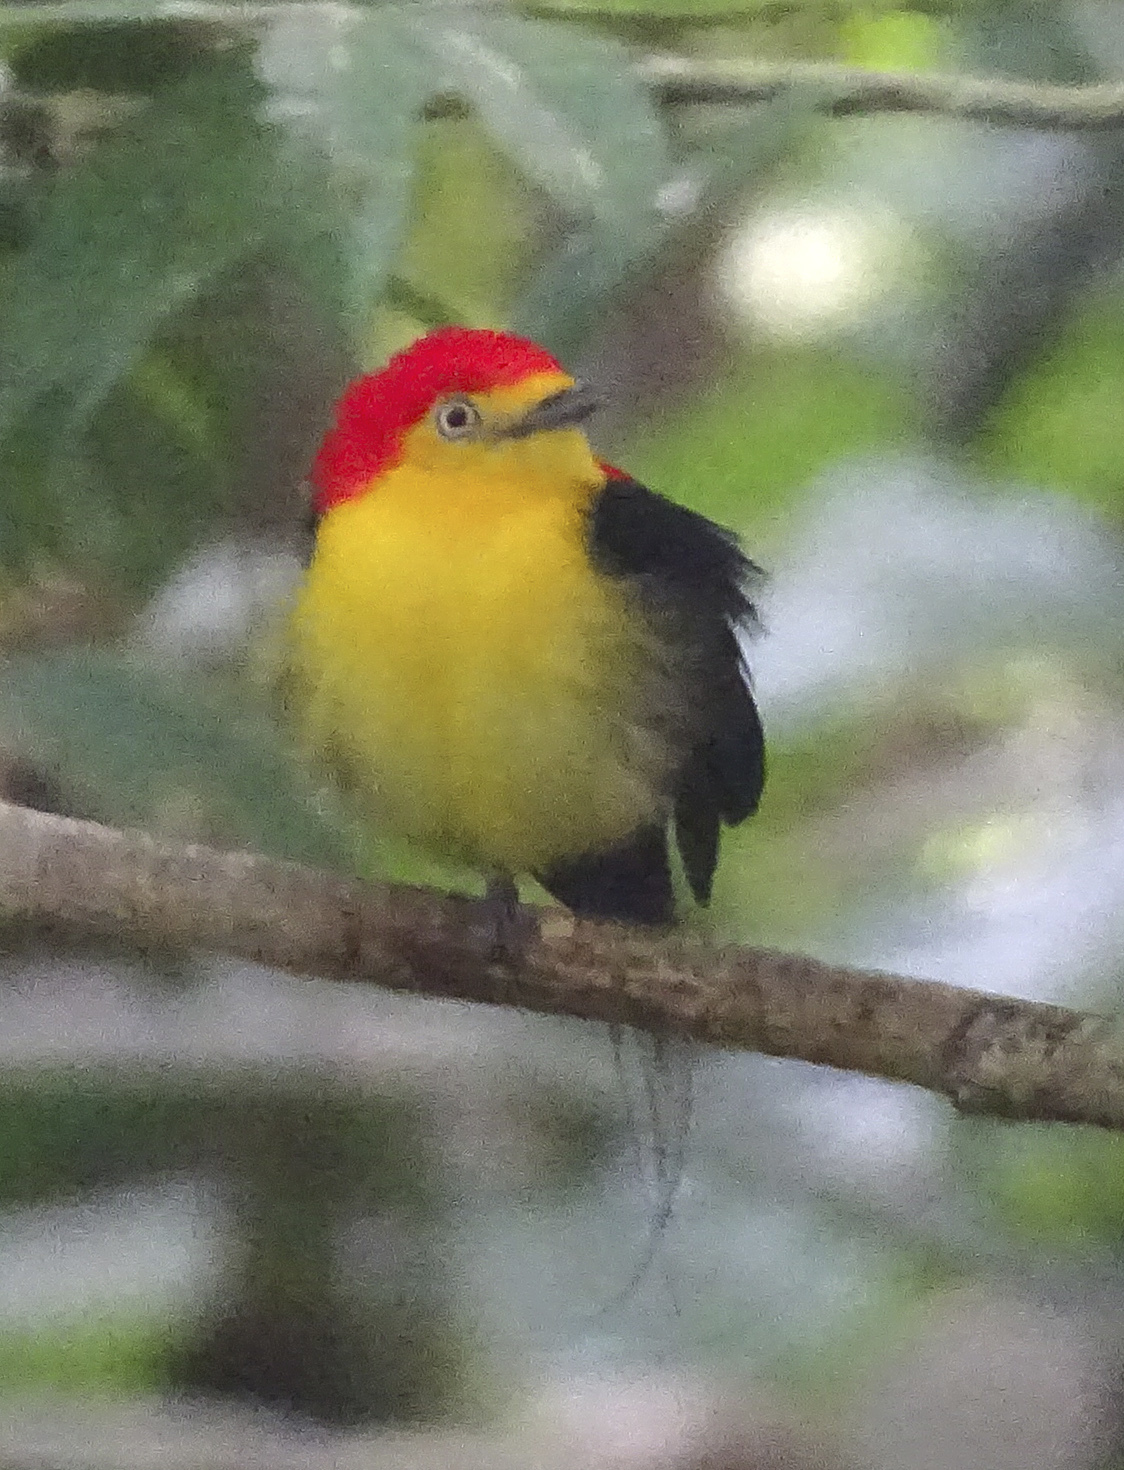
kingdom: Animalia
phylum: Chordata
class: Aves
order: Passeriformes
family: Pipridae
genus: Pipra
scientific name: Pipra filicauda
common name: Wire-tailed manakin
